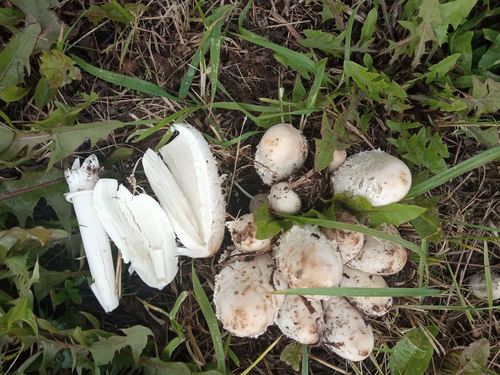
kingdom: Fungi
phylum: Basidiomycota
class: Agaricomycetes
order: Agaricales
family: Agaricaceae
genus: Coprinus
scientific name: Coprinus comatus
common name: Lawyer's wig
